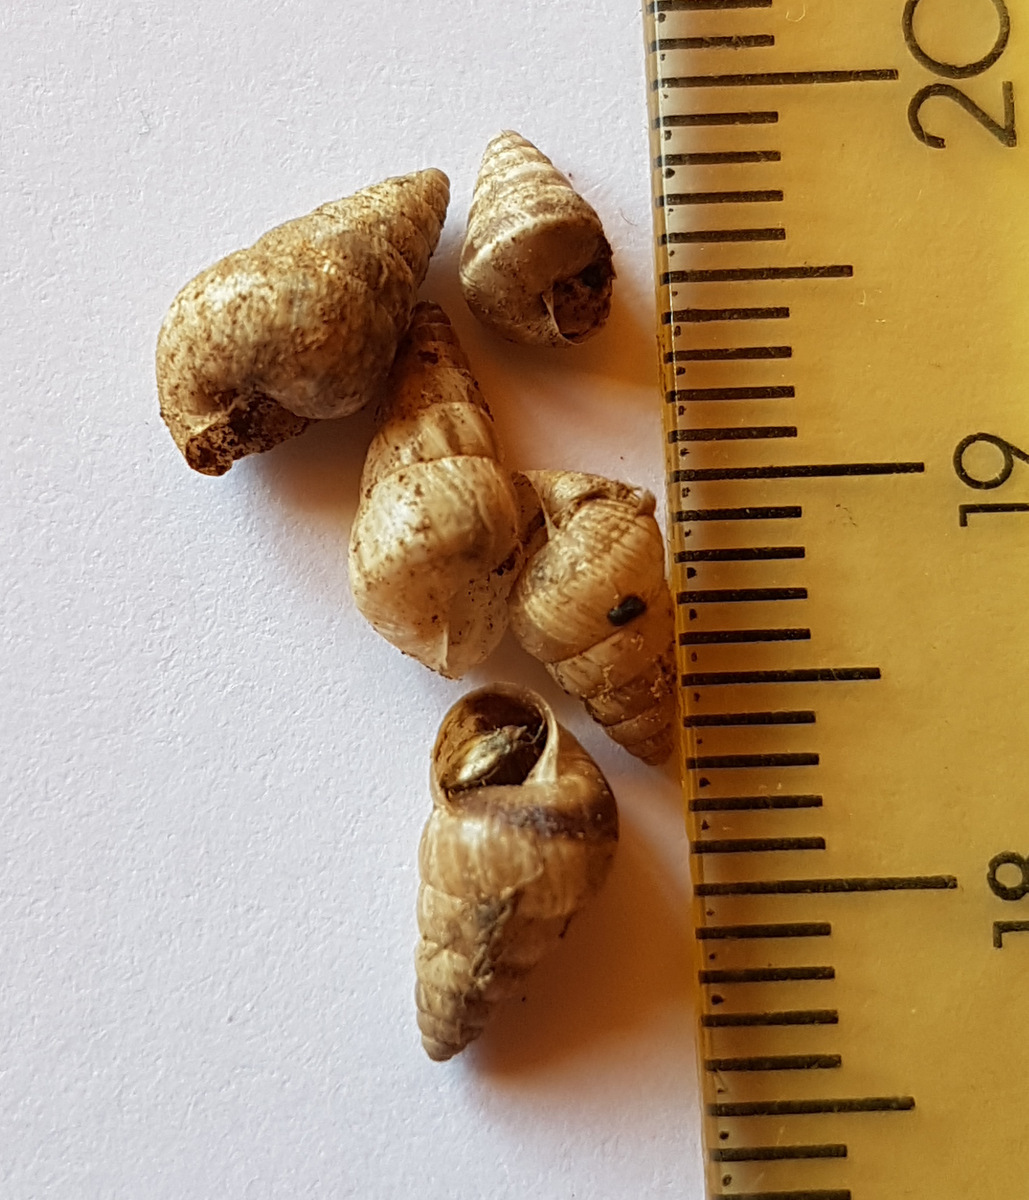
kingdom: Animalia
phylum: Mollusca
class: Gastropoda
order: Stylommatophora
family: Geomitridae
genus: Cochlicella
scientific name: Cochlicella barbara
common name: Potbellied helicellid
